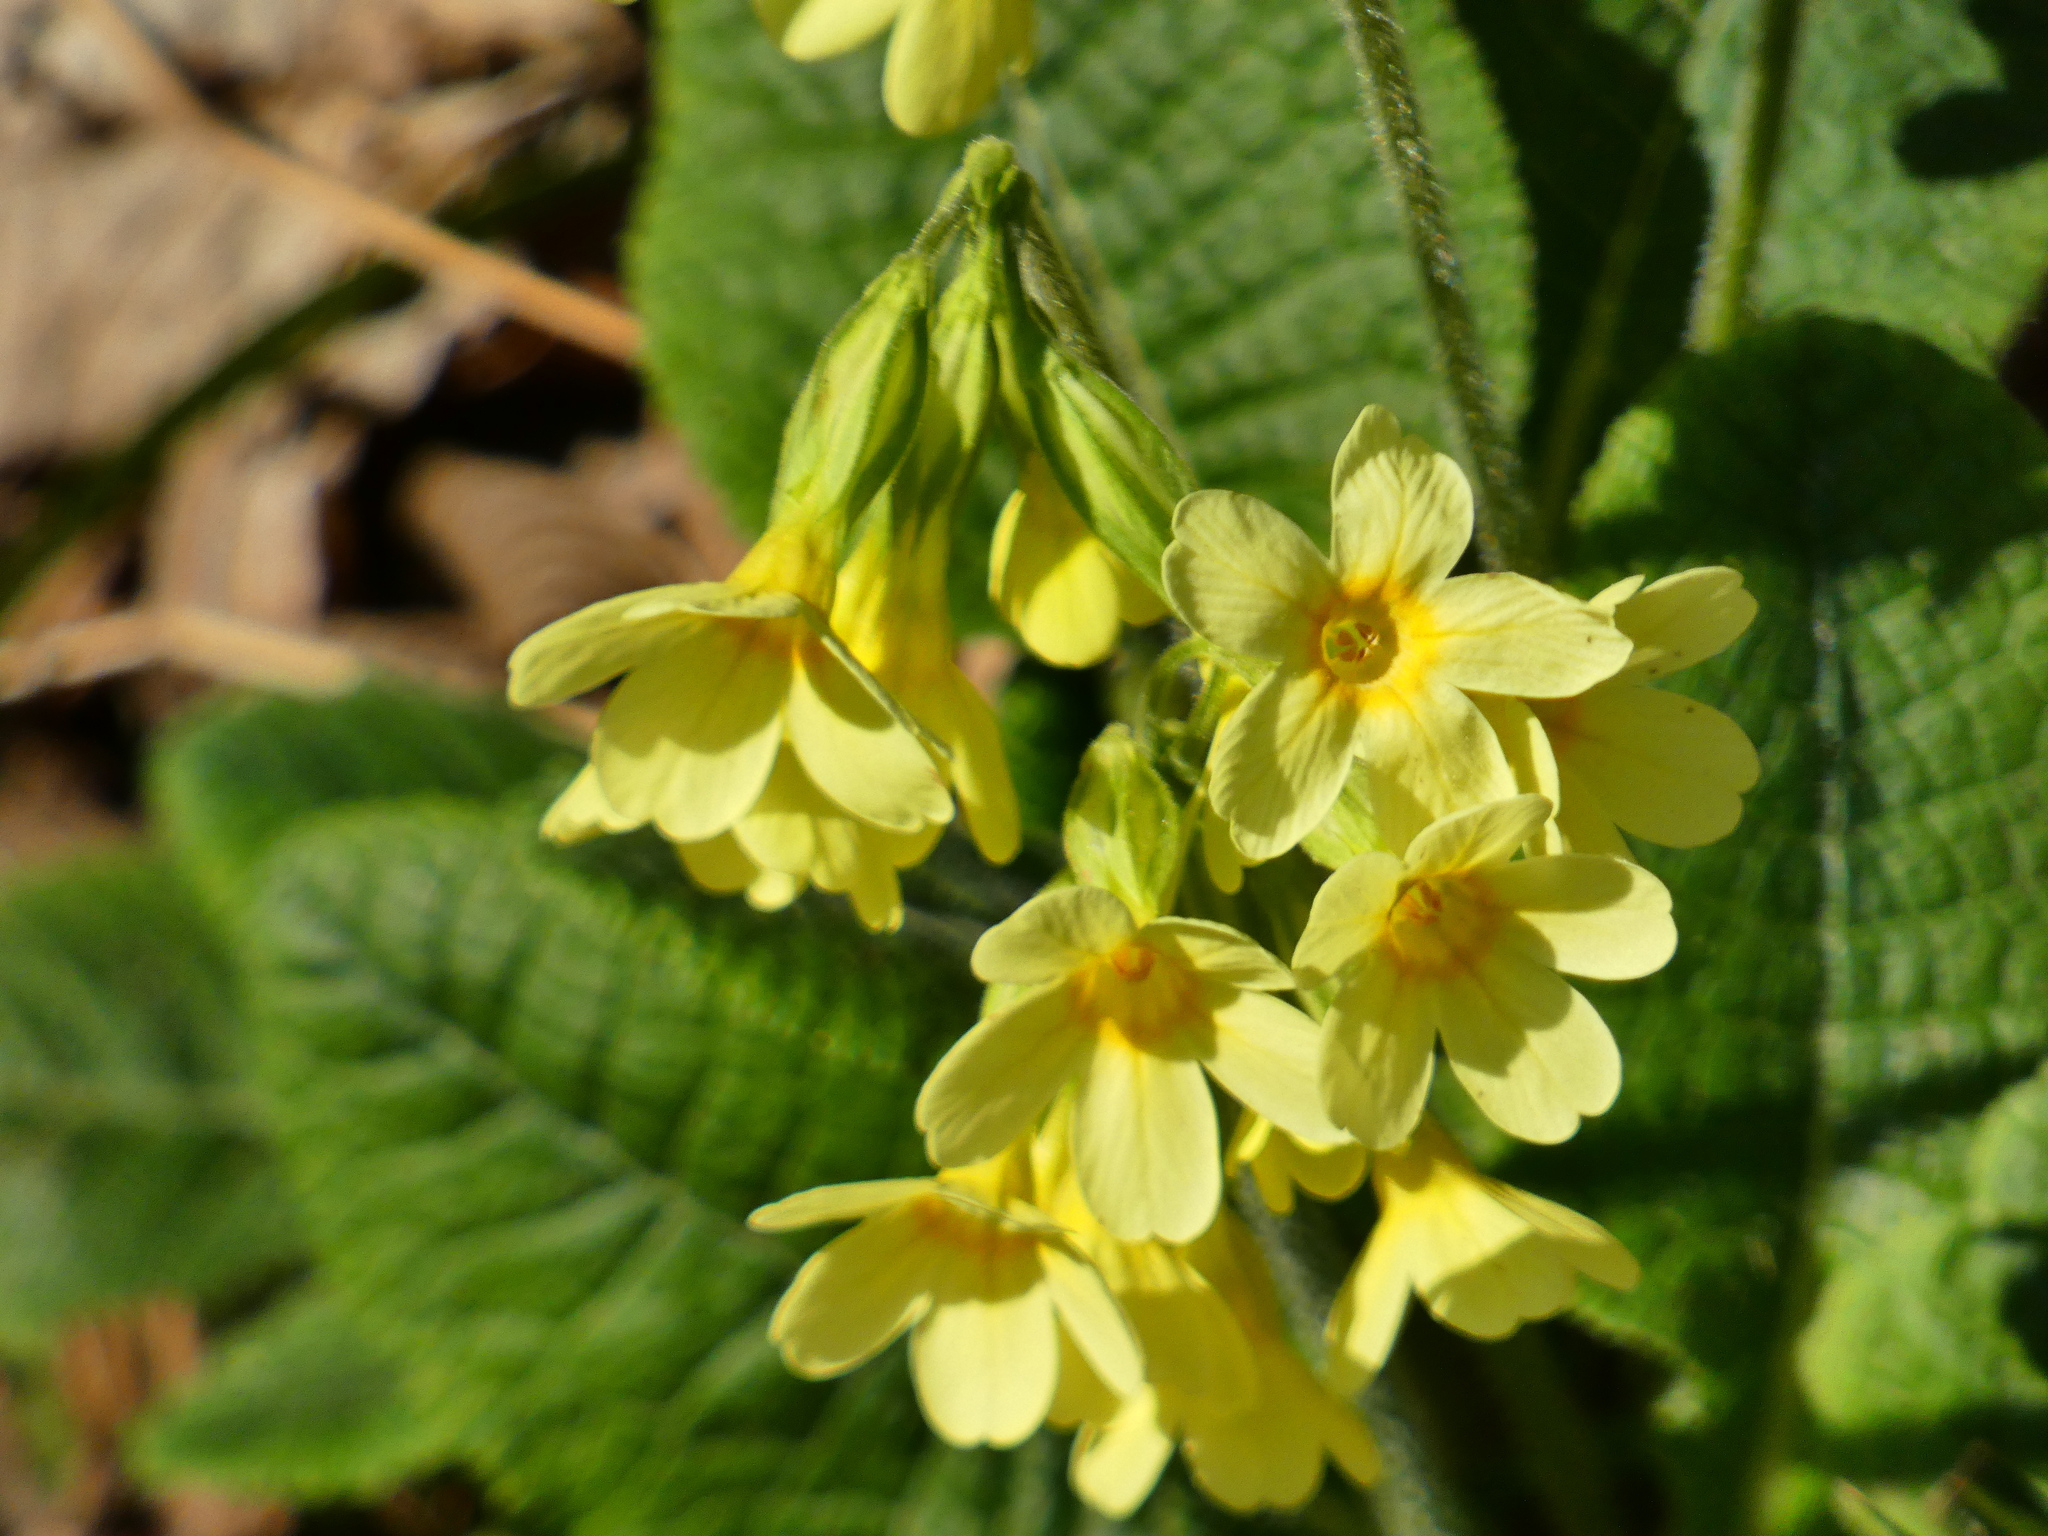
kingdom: Plantae
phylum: Tracheophyta
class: Magnoliopsida
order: Ericales
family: Primulaceae
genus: Primula
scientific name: Primula elatior
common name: Oxlip
